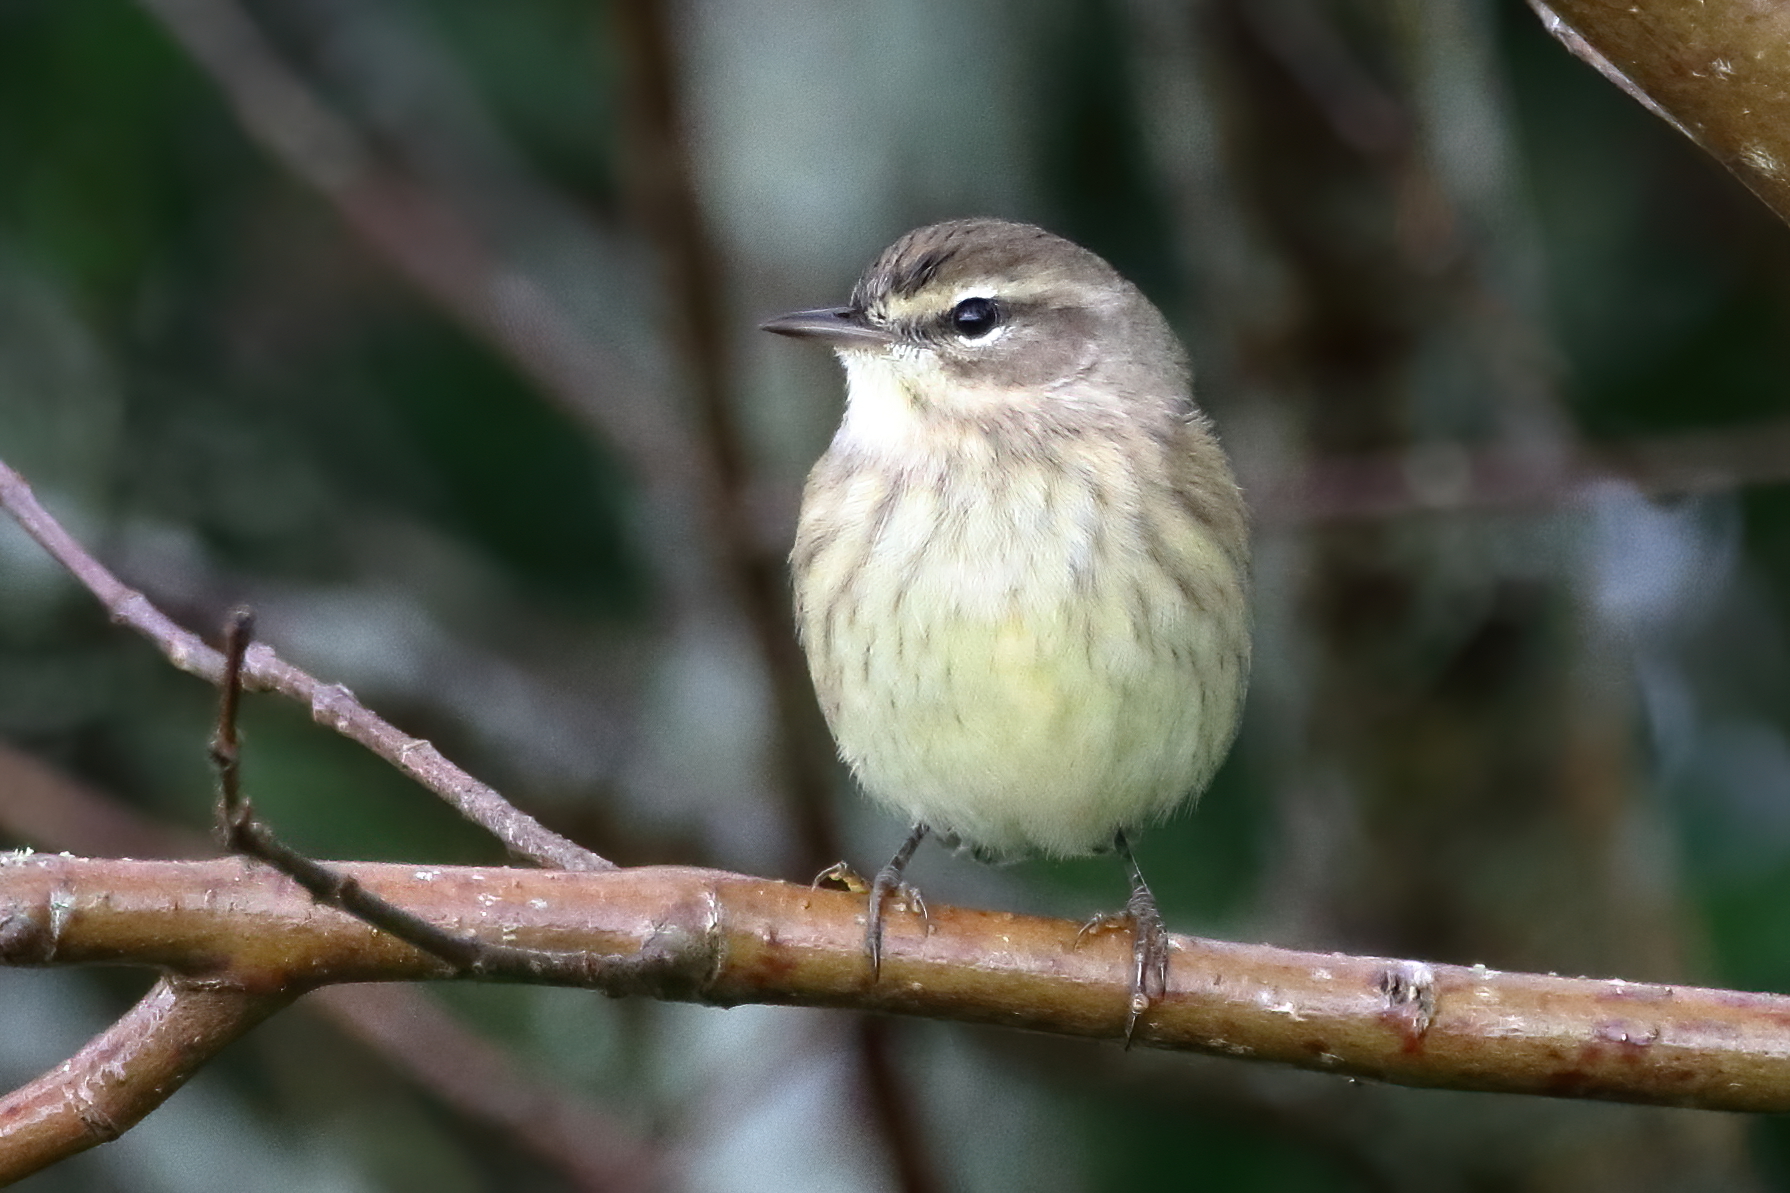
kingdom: Animalia
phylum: Chordata
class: Aves
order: Passeriformes
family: Parulidae
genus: Setophaga
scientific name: Setophaga palmarum
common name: Palm warbler
